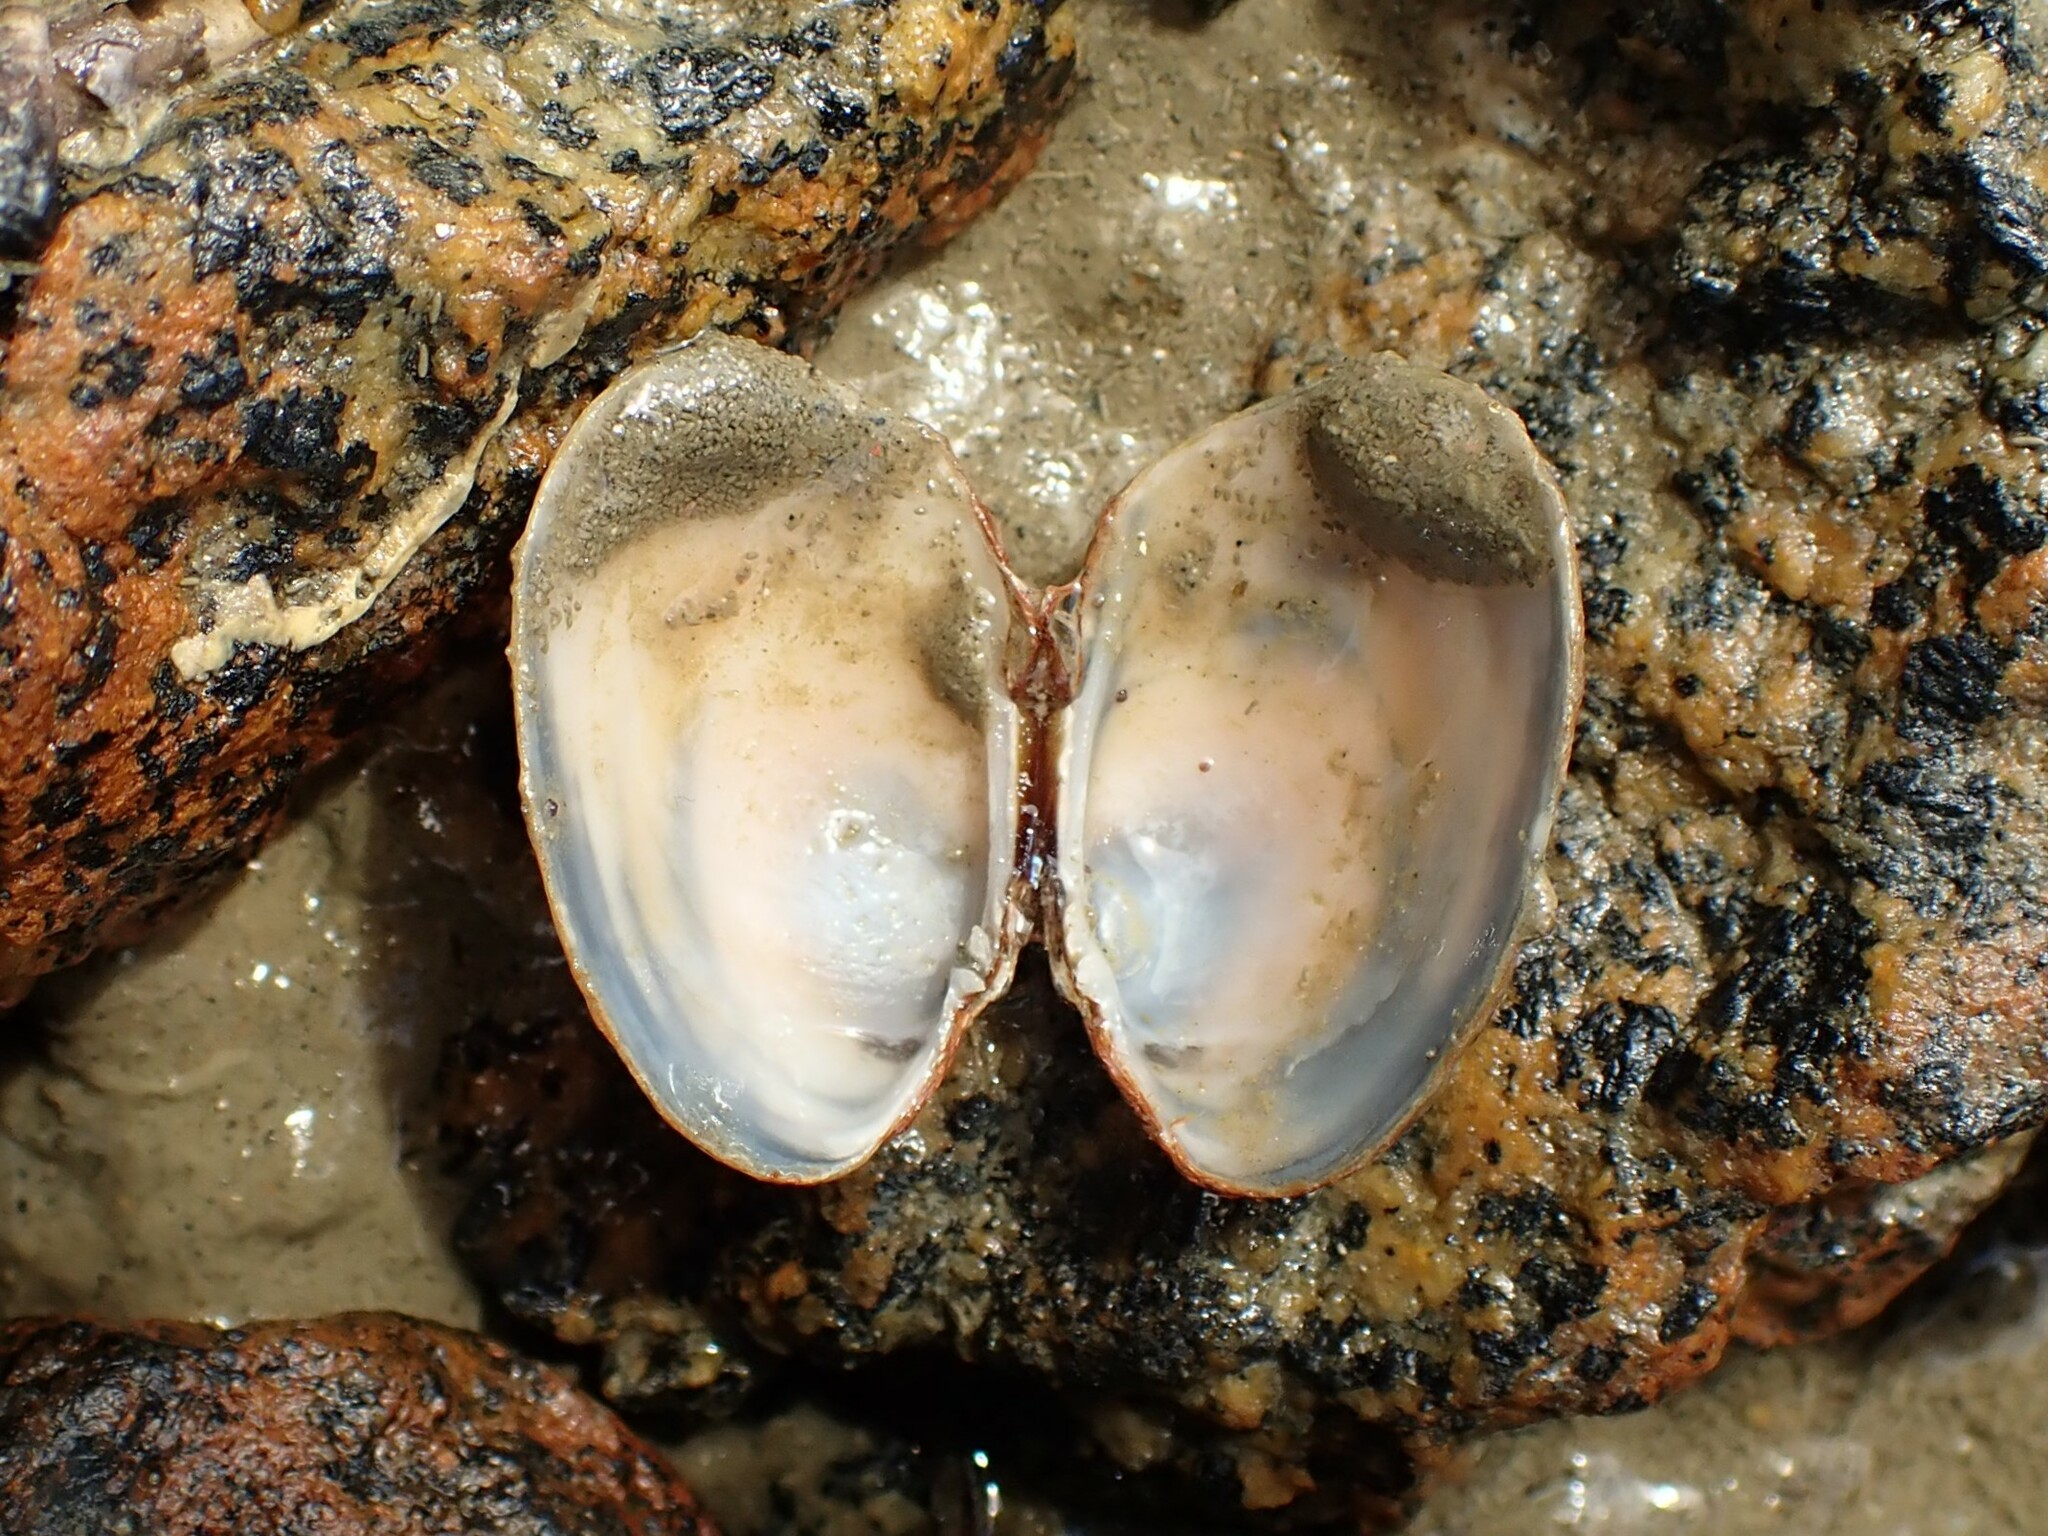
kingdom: Animalia
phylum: Mollusca
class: Bivalvia
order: Venerida
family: Veneridae
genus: Venerupis
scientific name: Venerupis largillierti
